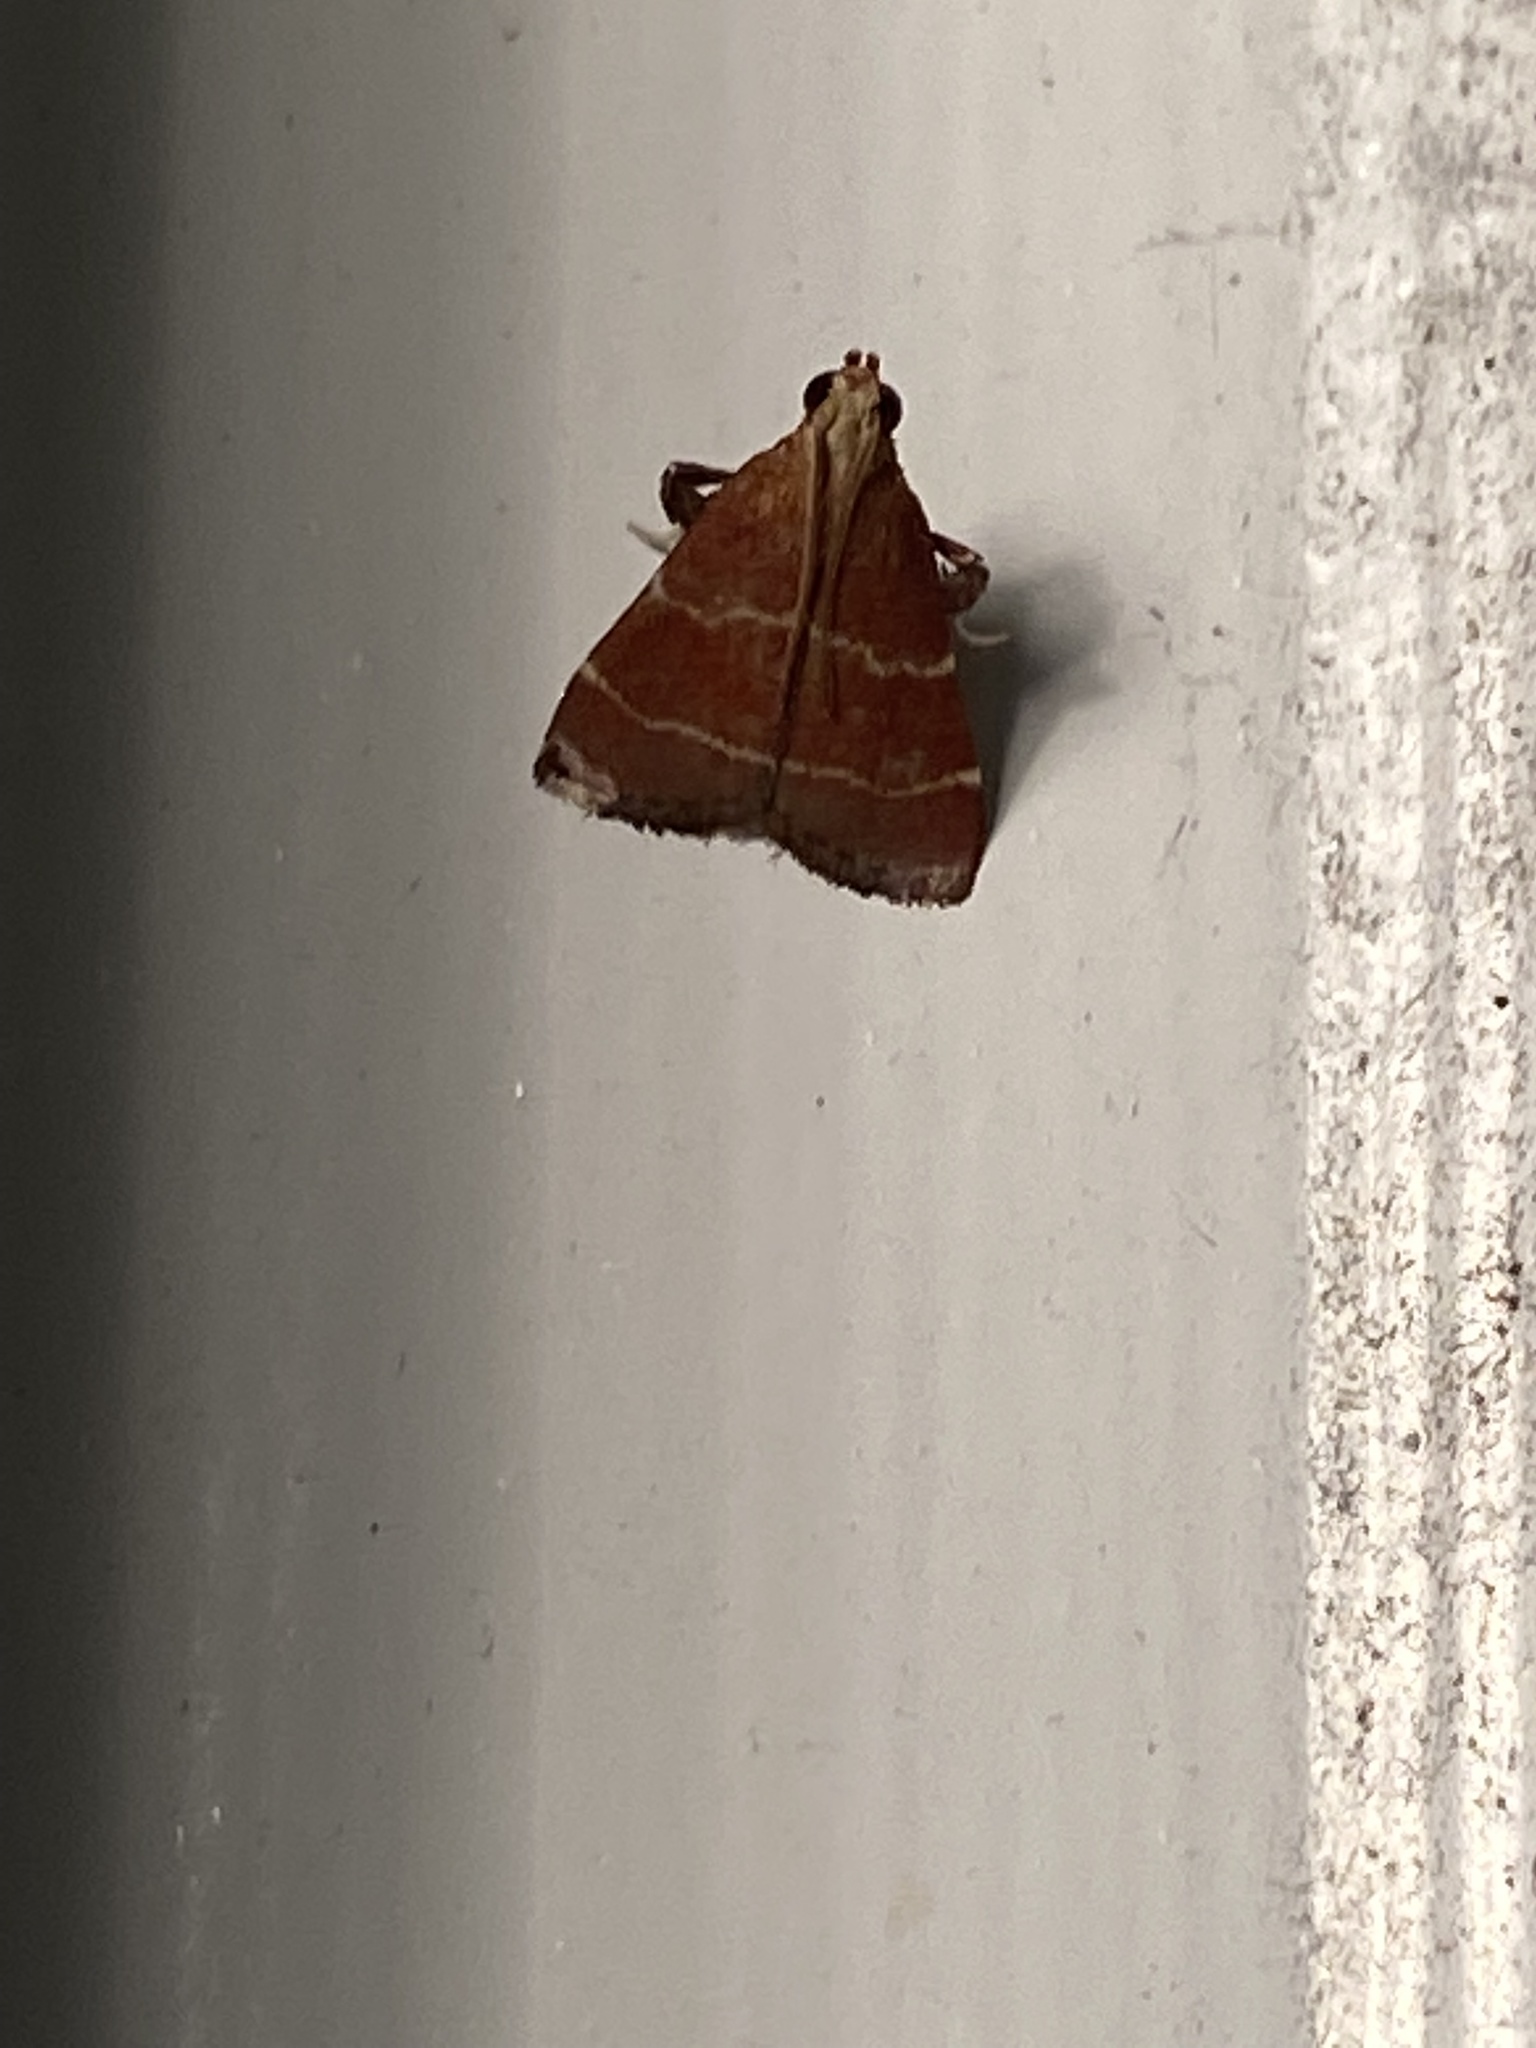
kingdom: Animalia
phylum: Arthropoda
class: Insecta
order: Lepidoptera
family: Pyralidae
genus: Arta
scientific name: Arta statalis
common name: Posturing arta moth
